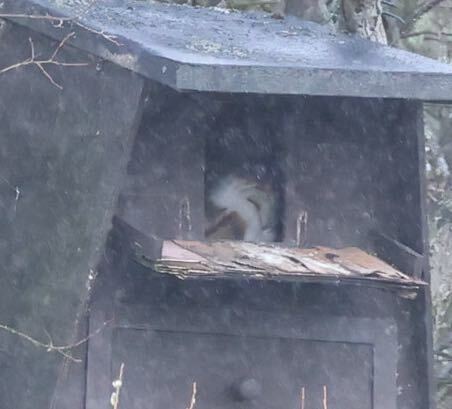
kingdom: Animalia
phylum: Chordata
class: Aves
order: Strigiformes
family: Tytonidae
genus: Tyto
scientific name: Tyto alba
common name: Barn owl
